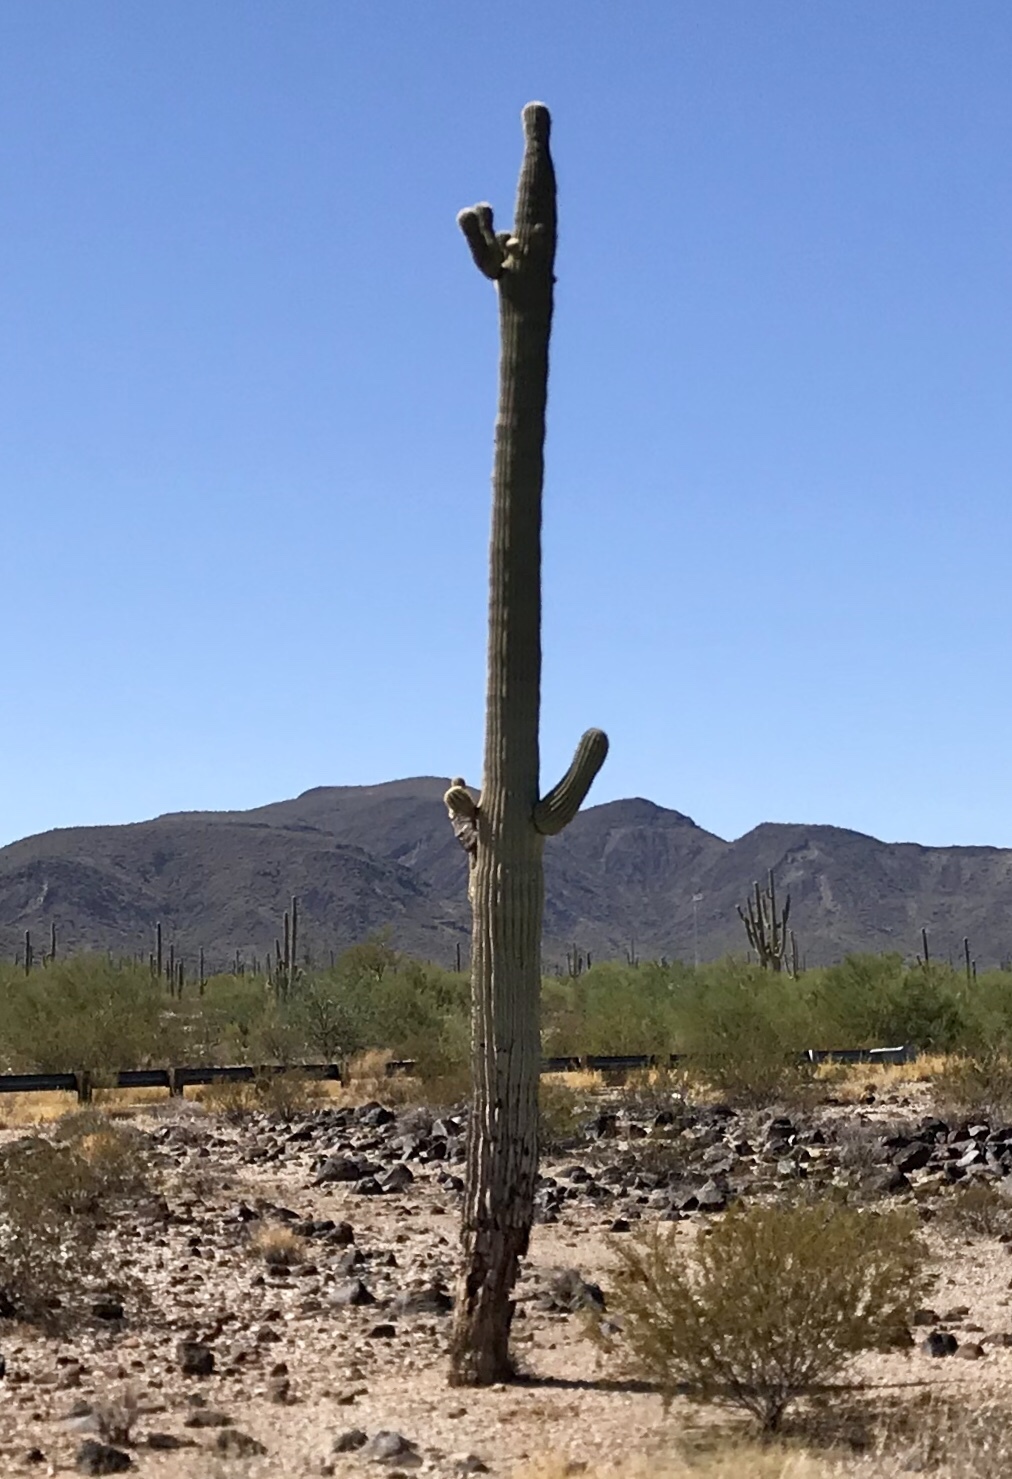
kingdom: Plantae
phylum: Tracheophyta
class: Magnoliopsida
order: Caryophyllales
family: Cactaceae
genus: Carnegiea
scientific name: Carnegiea gigantea
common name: Saguaro
